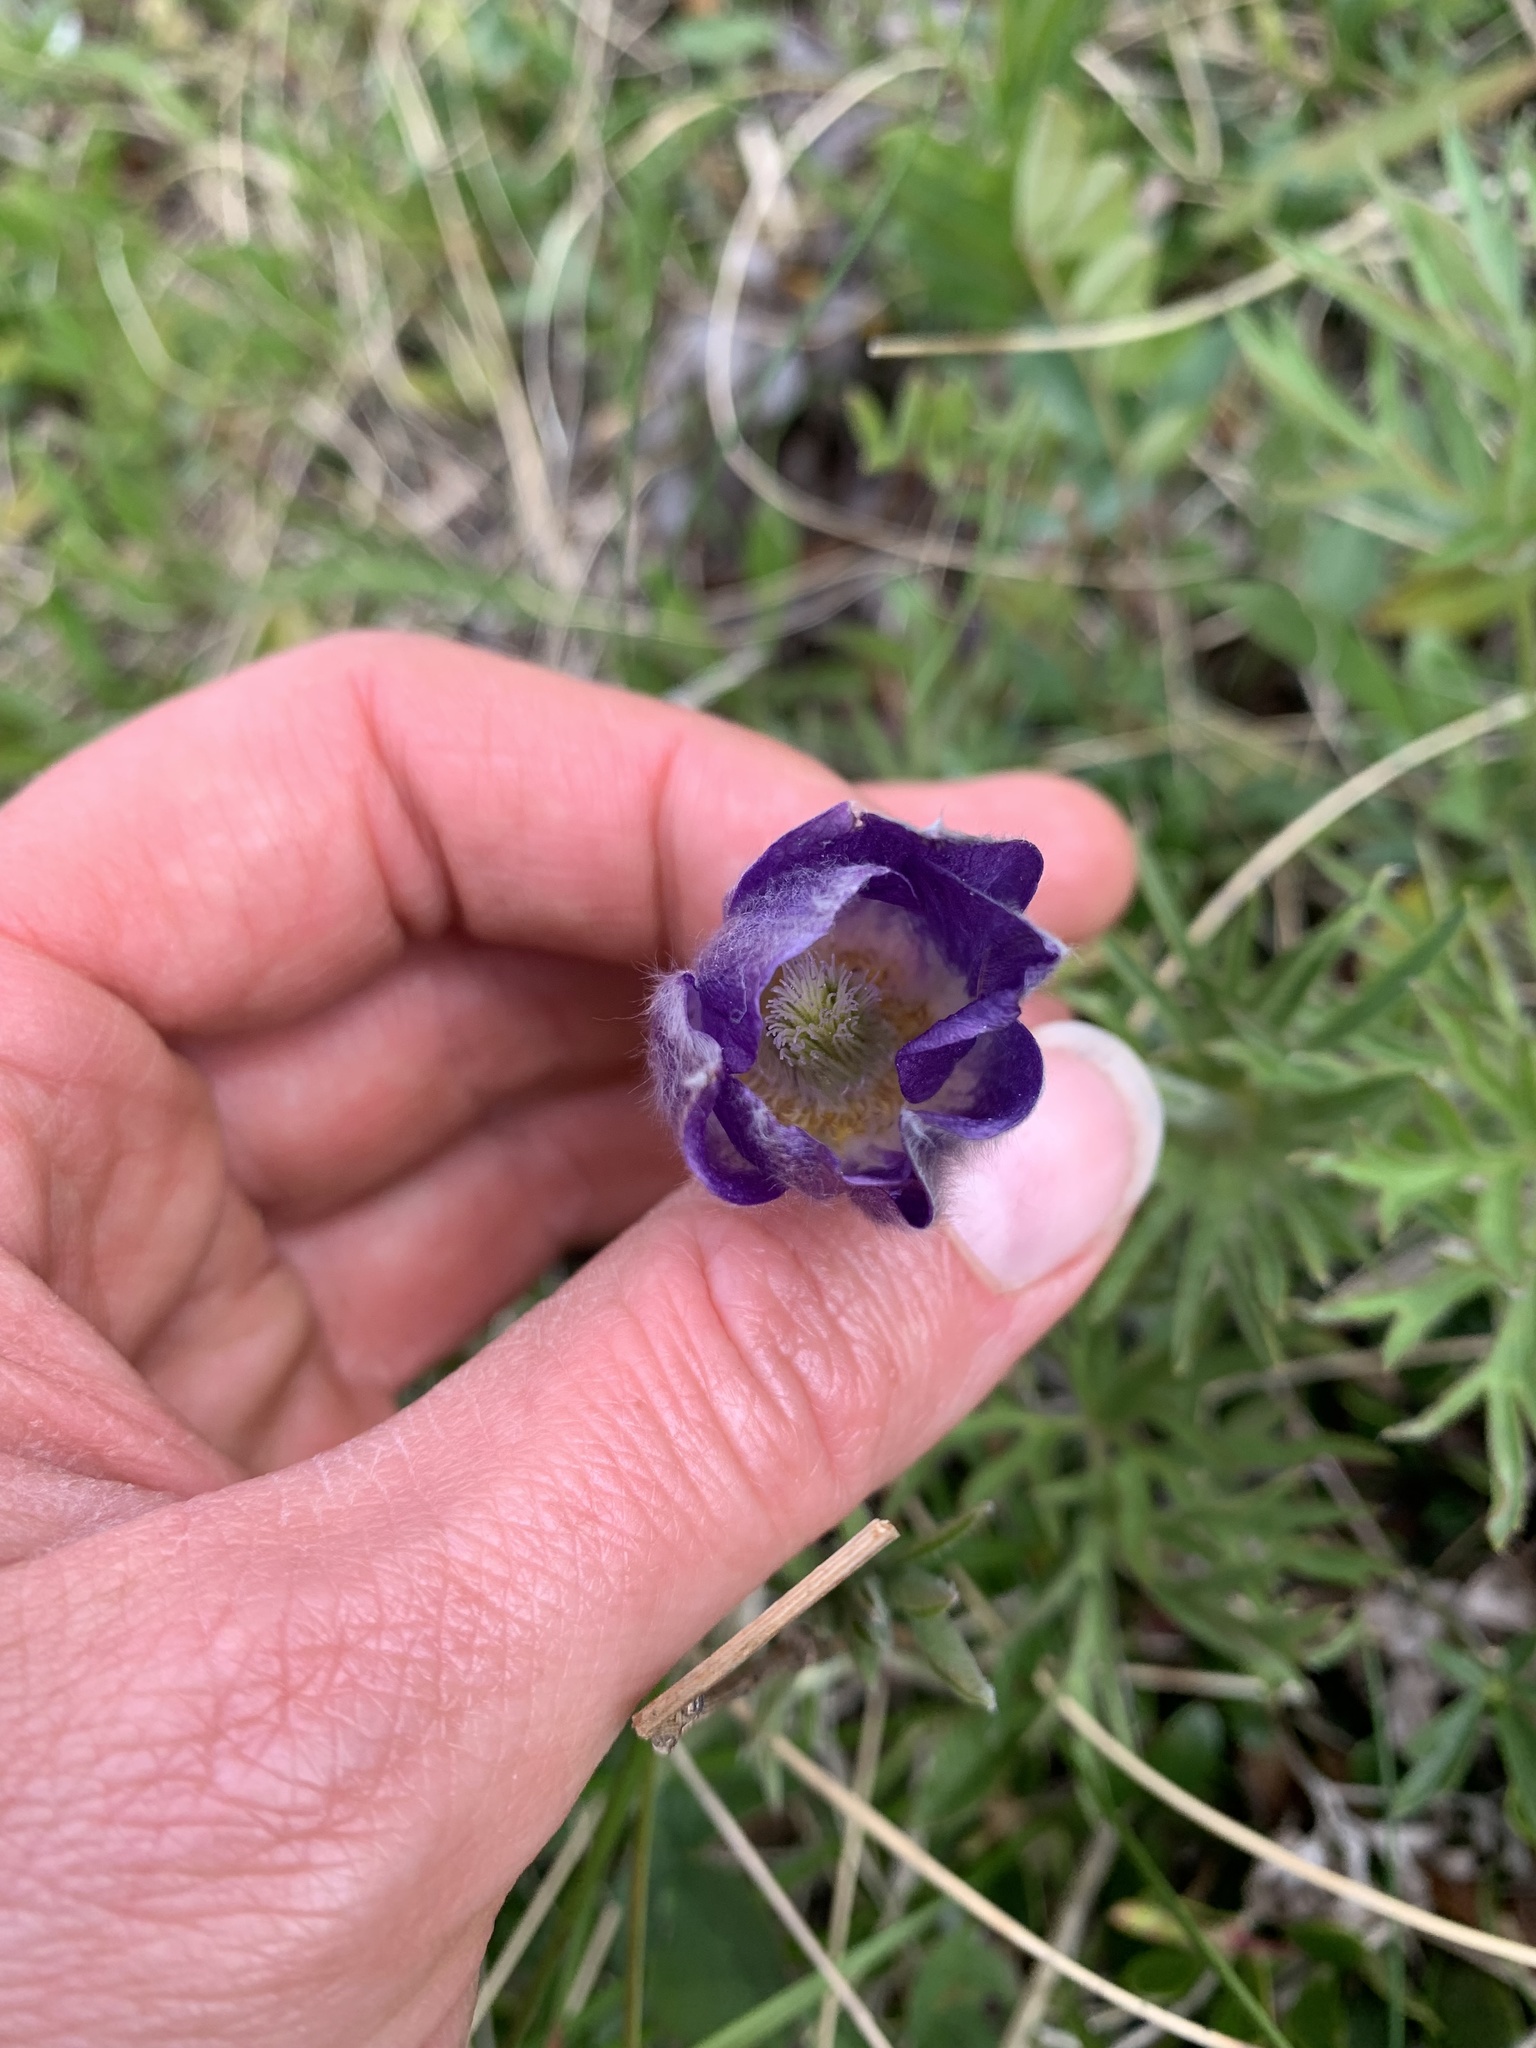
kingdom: Plantae
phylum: Tracheophyta
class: Magnoliopsida
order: Ranunculales
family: Ranunculaceae
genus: Pulsatilla
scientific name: Pulsatilla nuttalliana
